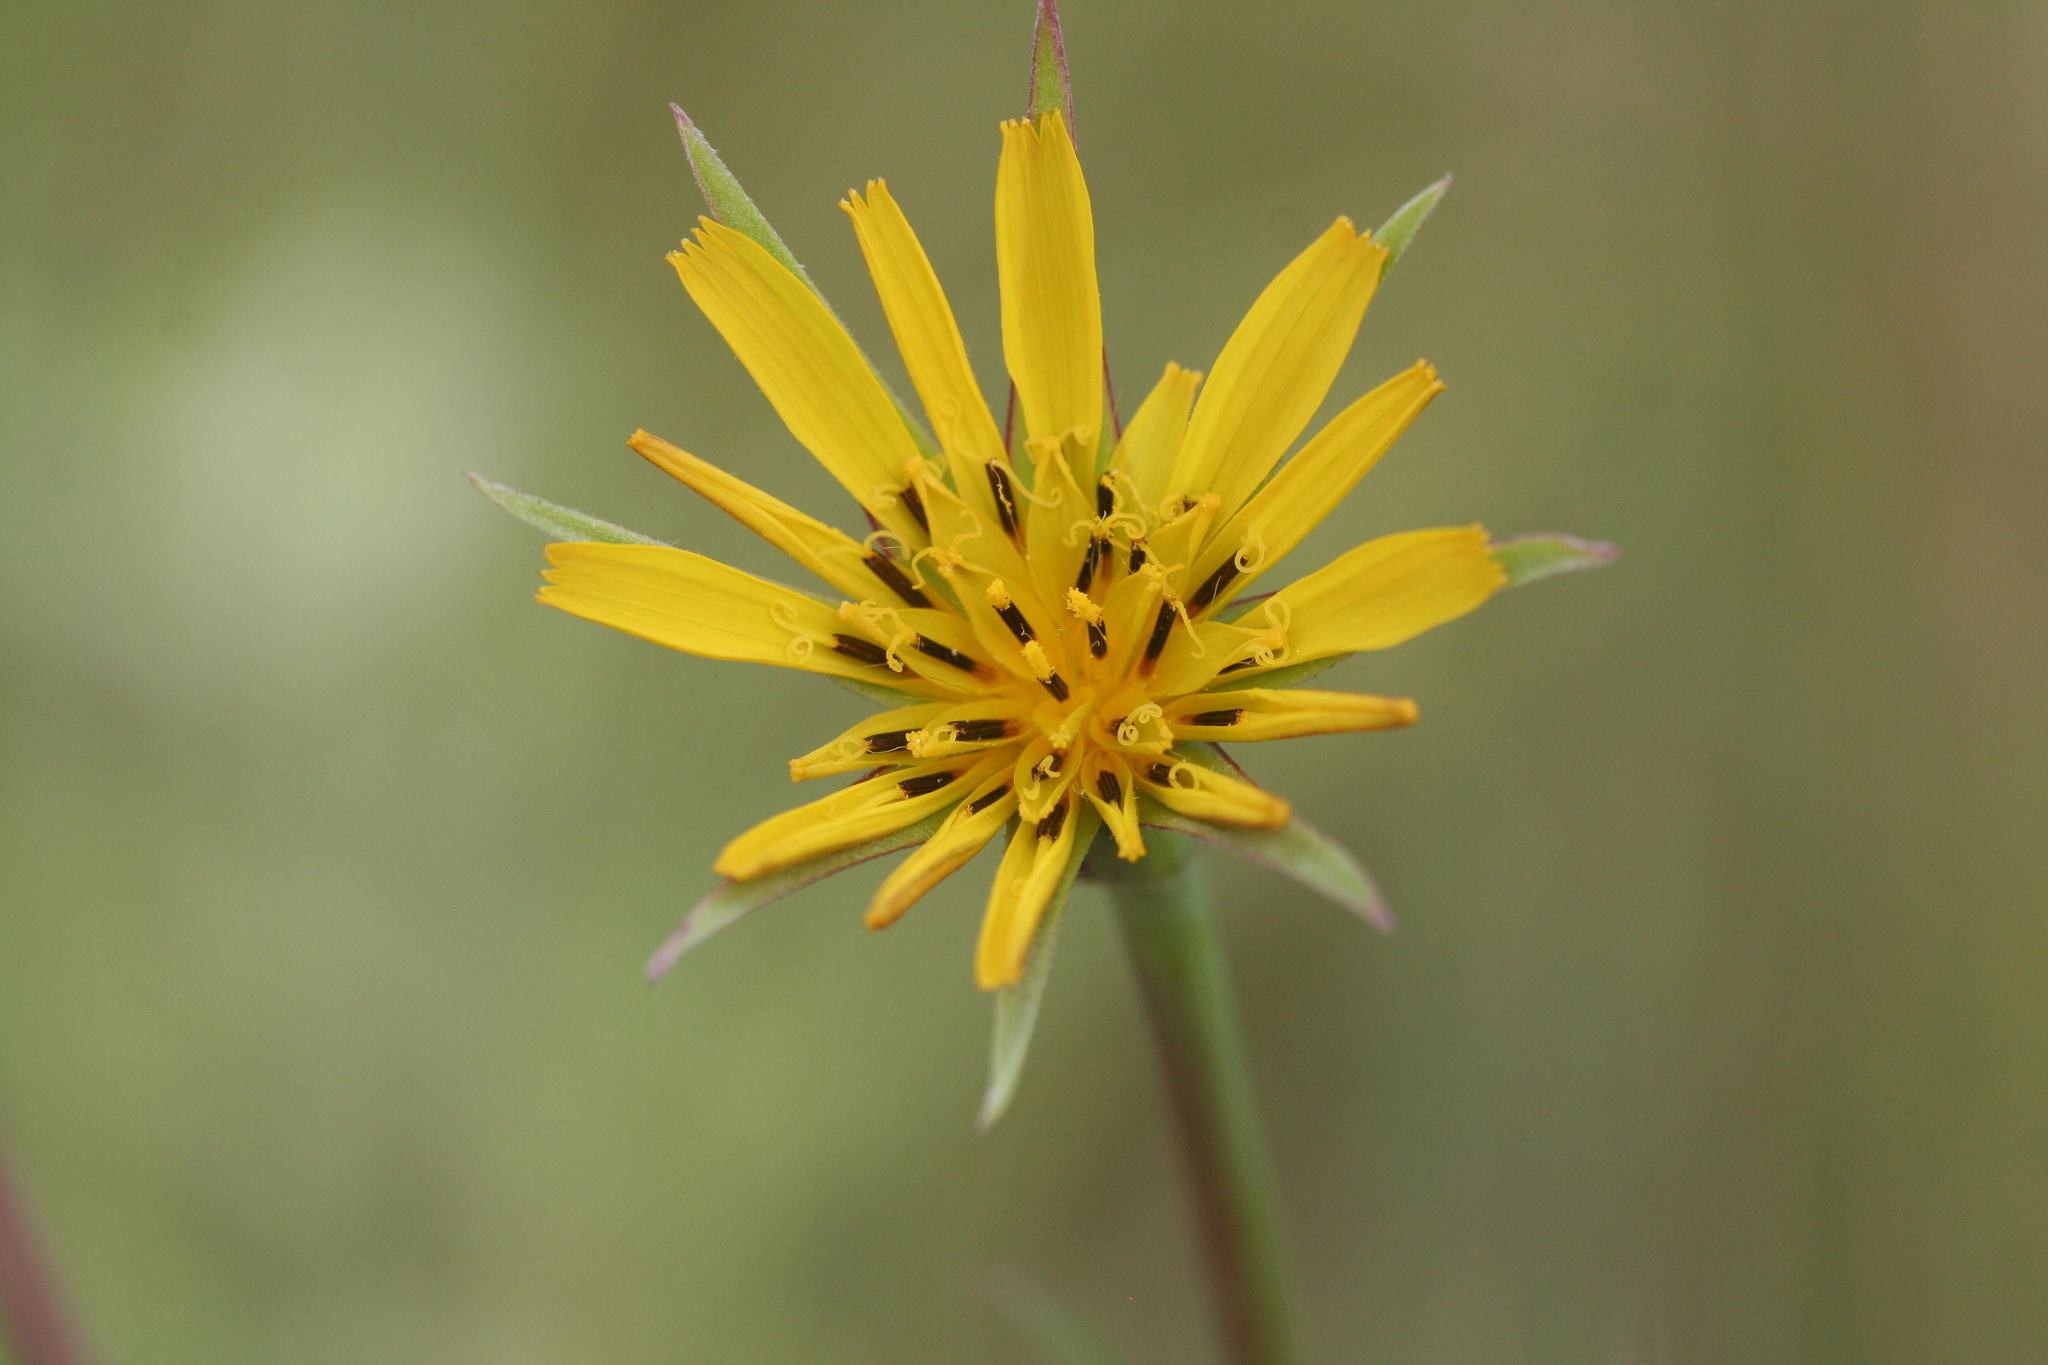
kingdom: Plantae
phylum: Tracheophyta
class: Magnoliopsida
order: Asterales
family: Asteraceae
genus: Tragopogon
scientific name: Tragopogon pratensis
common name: Goat's-beard
